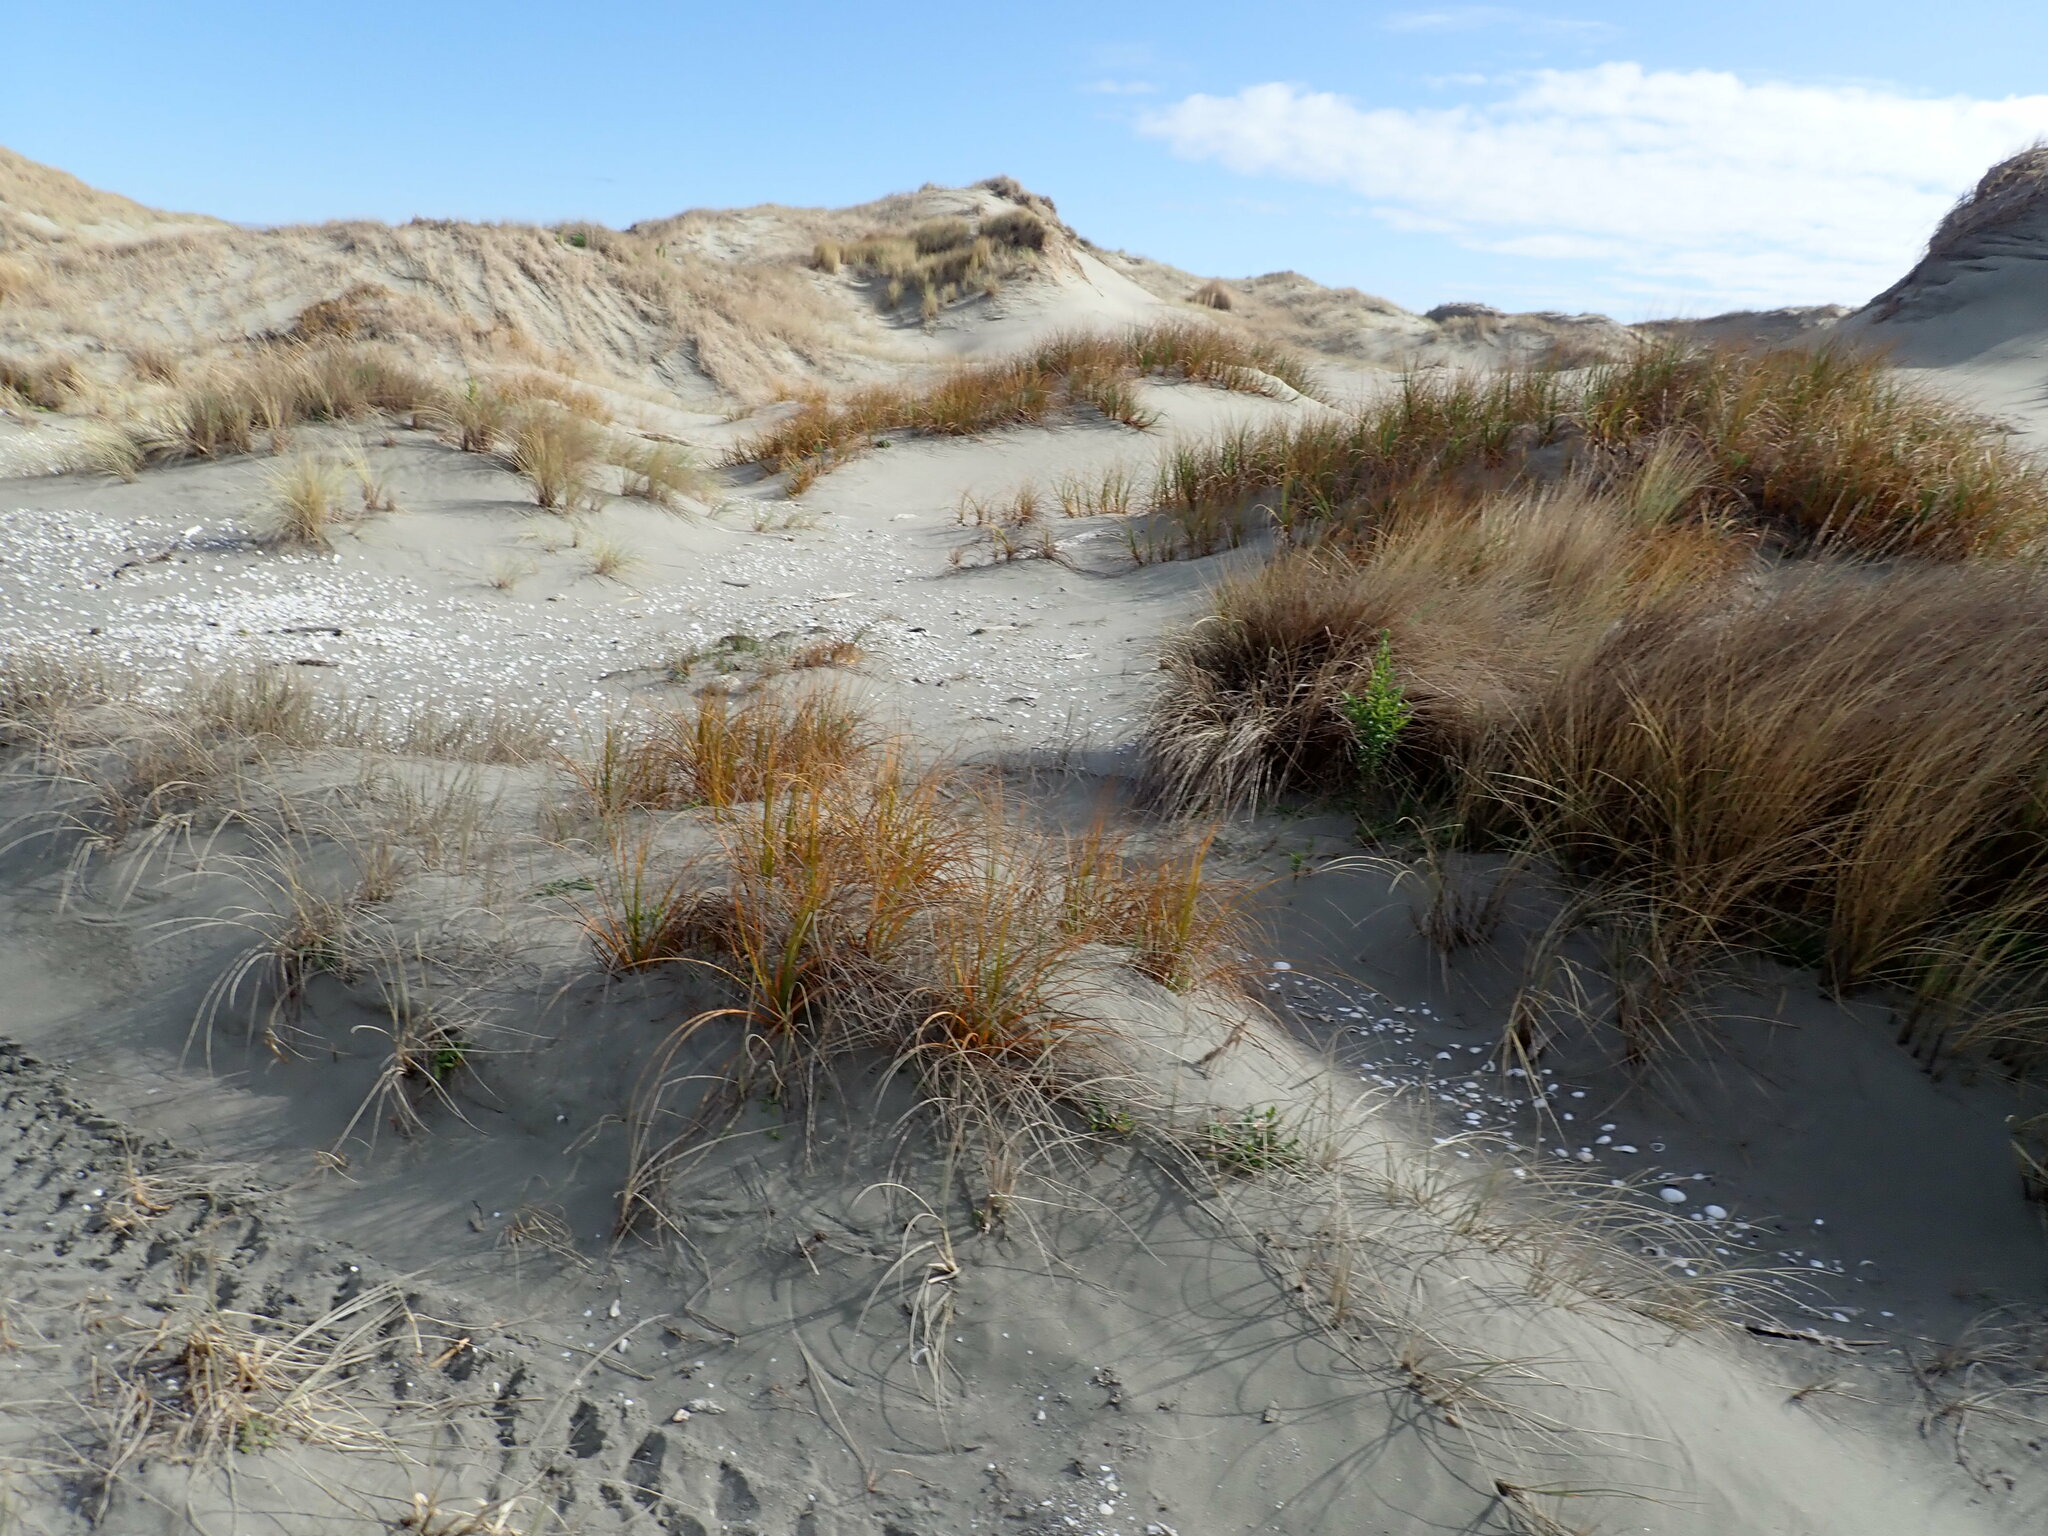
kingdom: Plantae
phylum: Tracheophyta
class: Liliopsida
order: Poales
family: Cyperaceae
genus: Ficinia
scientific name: Ficinia spiralis
